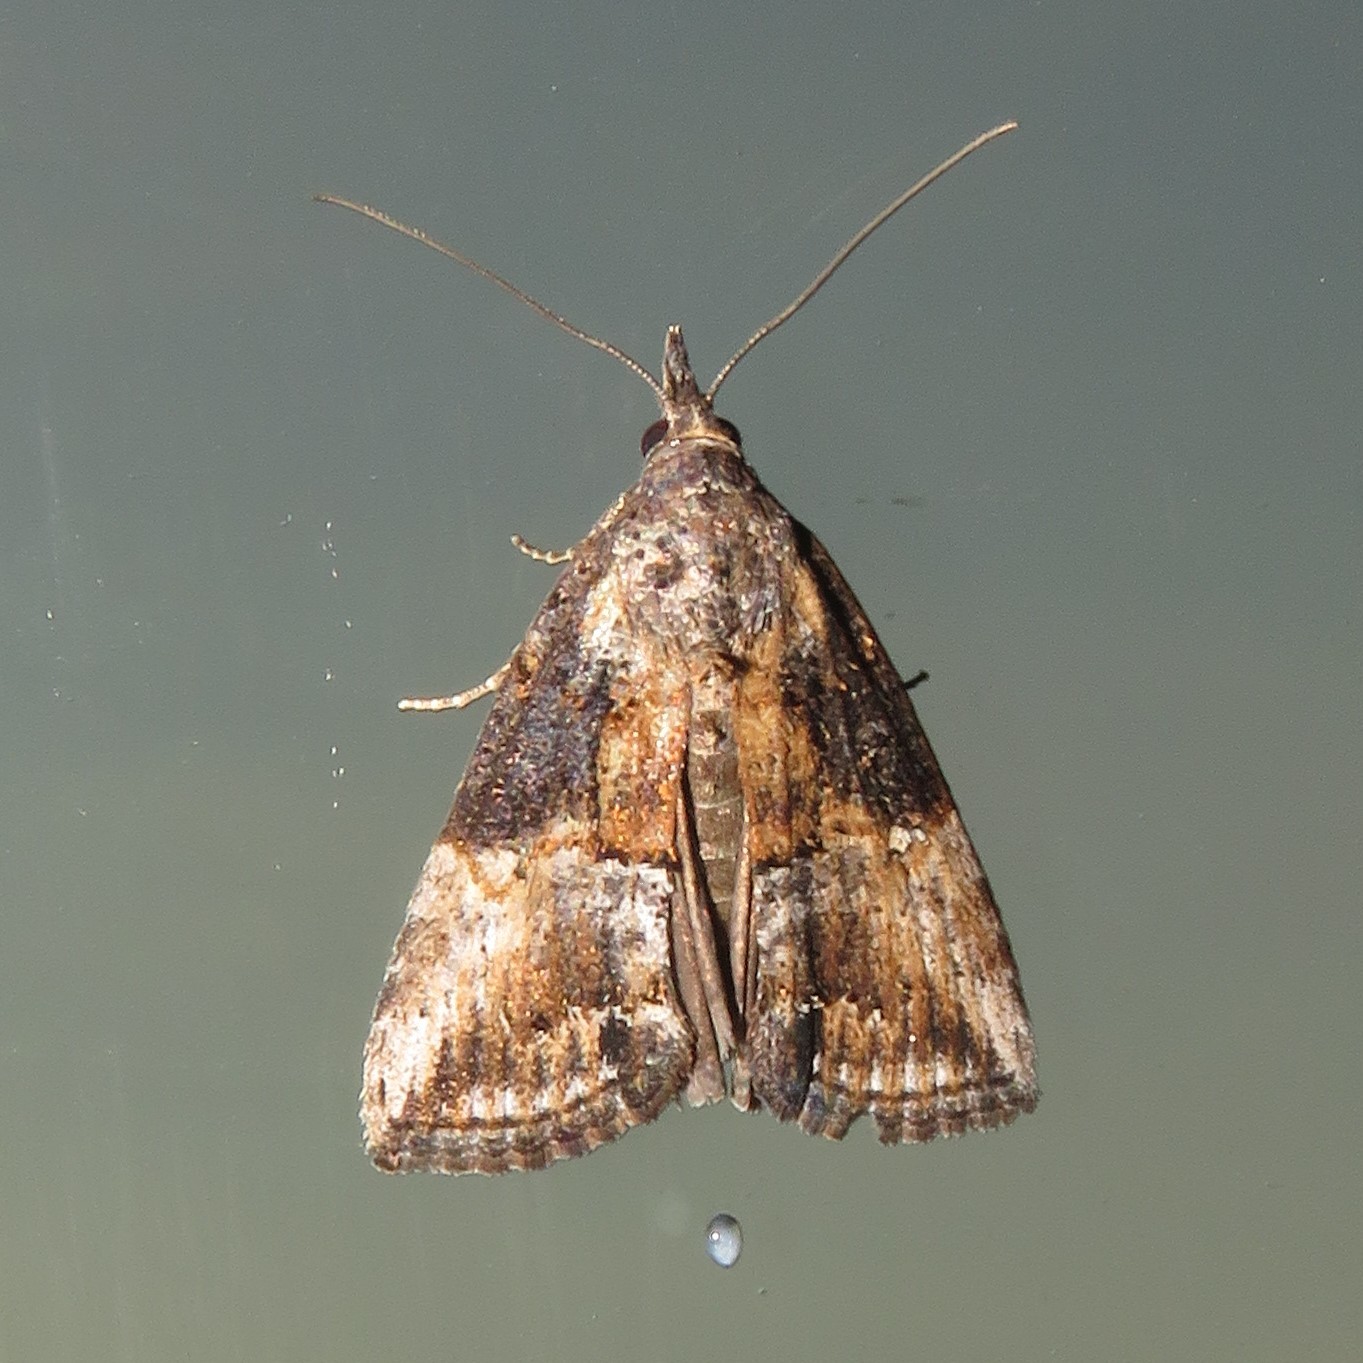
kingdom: Animalia
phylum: Arthropoda
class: Insecta
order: Lepidoptera
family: Erebidae
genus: Hypena
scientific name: Hypena scabra
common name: Green cloverworm
